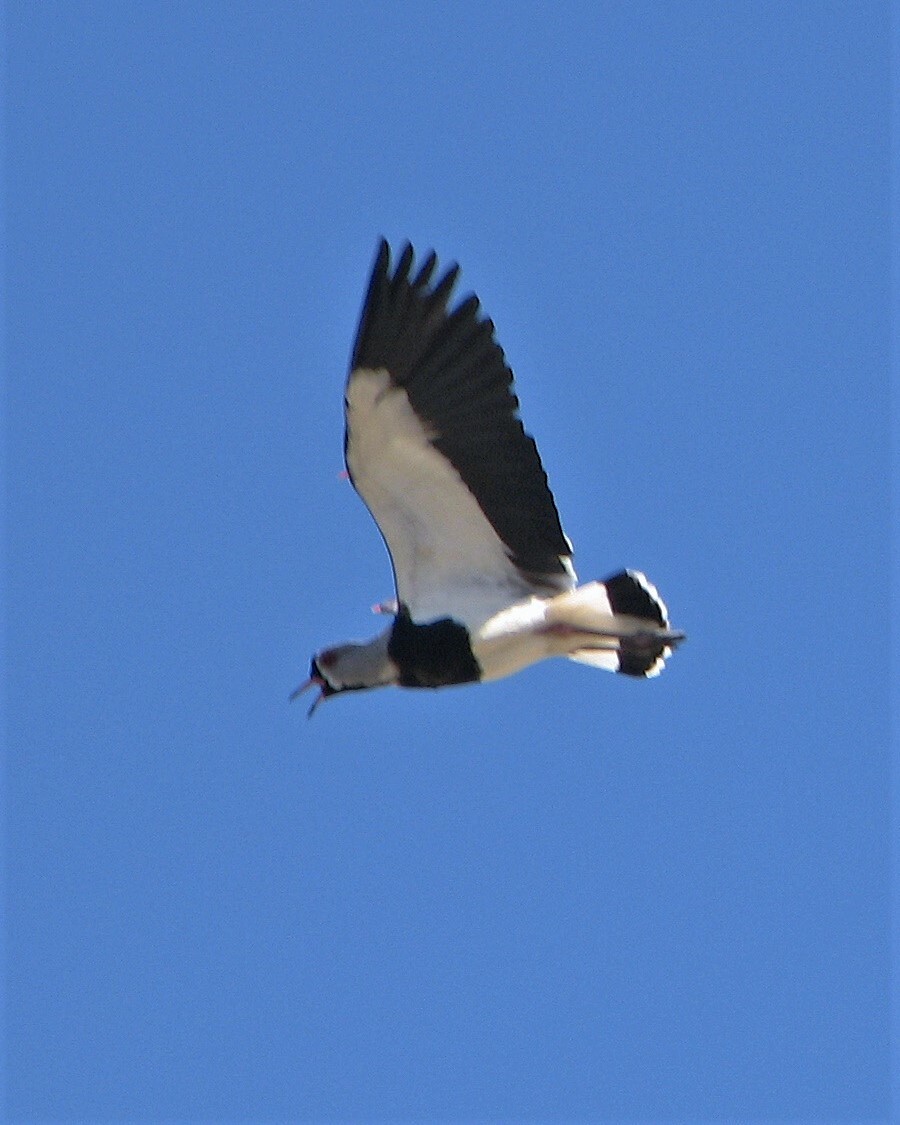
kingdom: Animalia
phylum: Chordata
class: Aves
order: Charadriiformes
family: Charadriidae
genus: Vanellus
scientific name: Vanellus chilensis
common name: Southern lapwing
